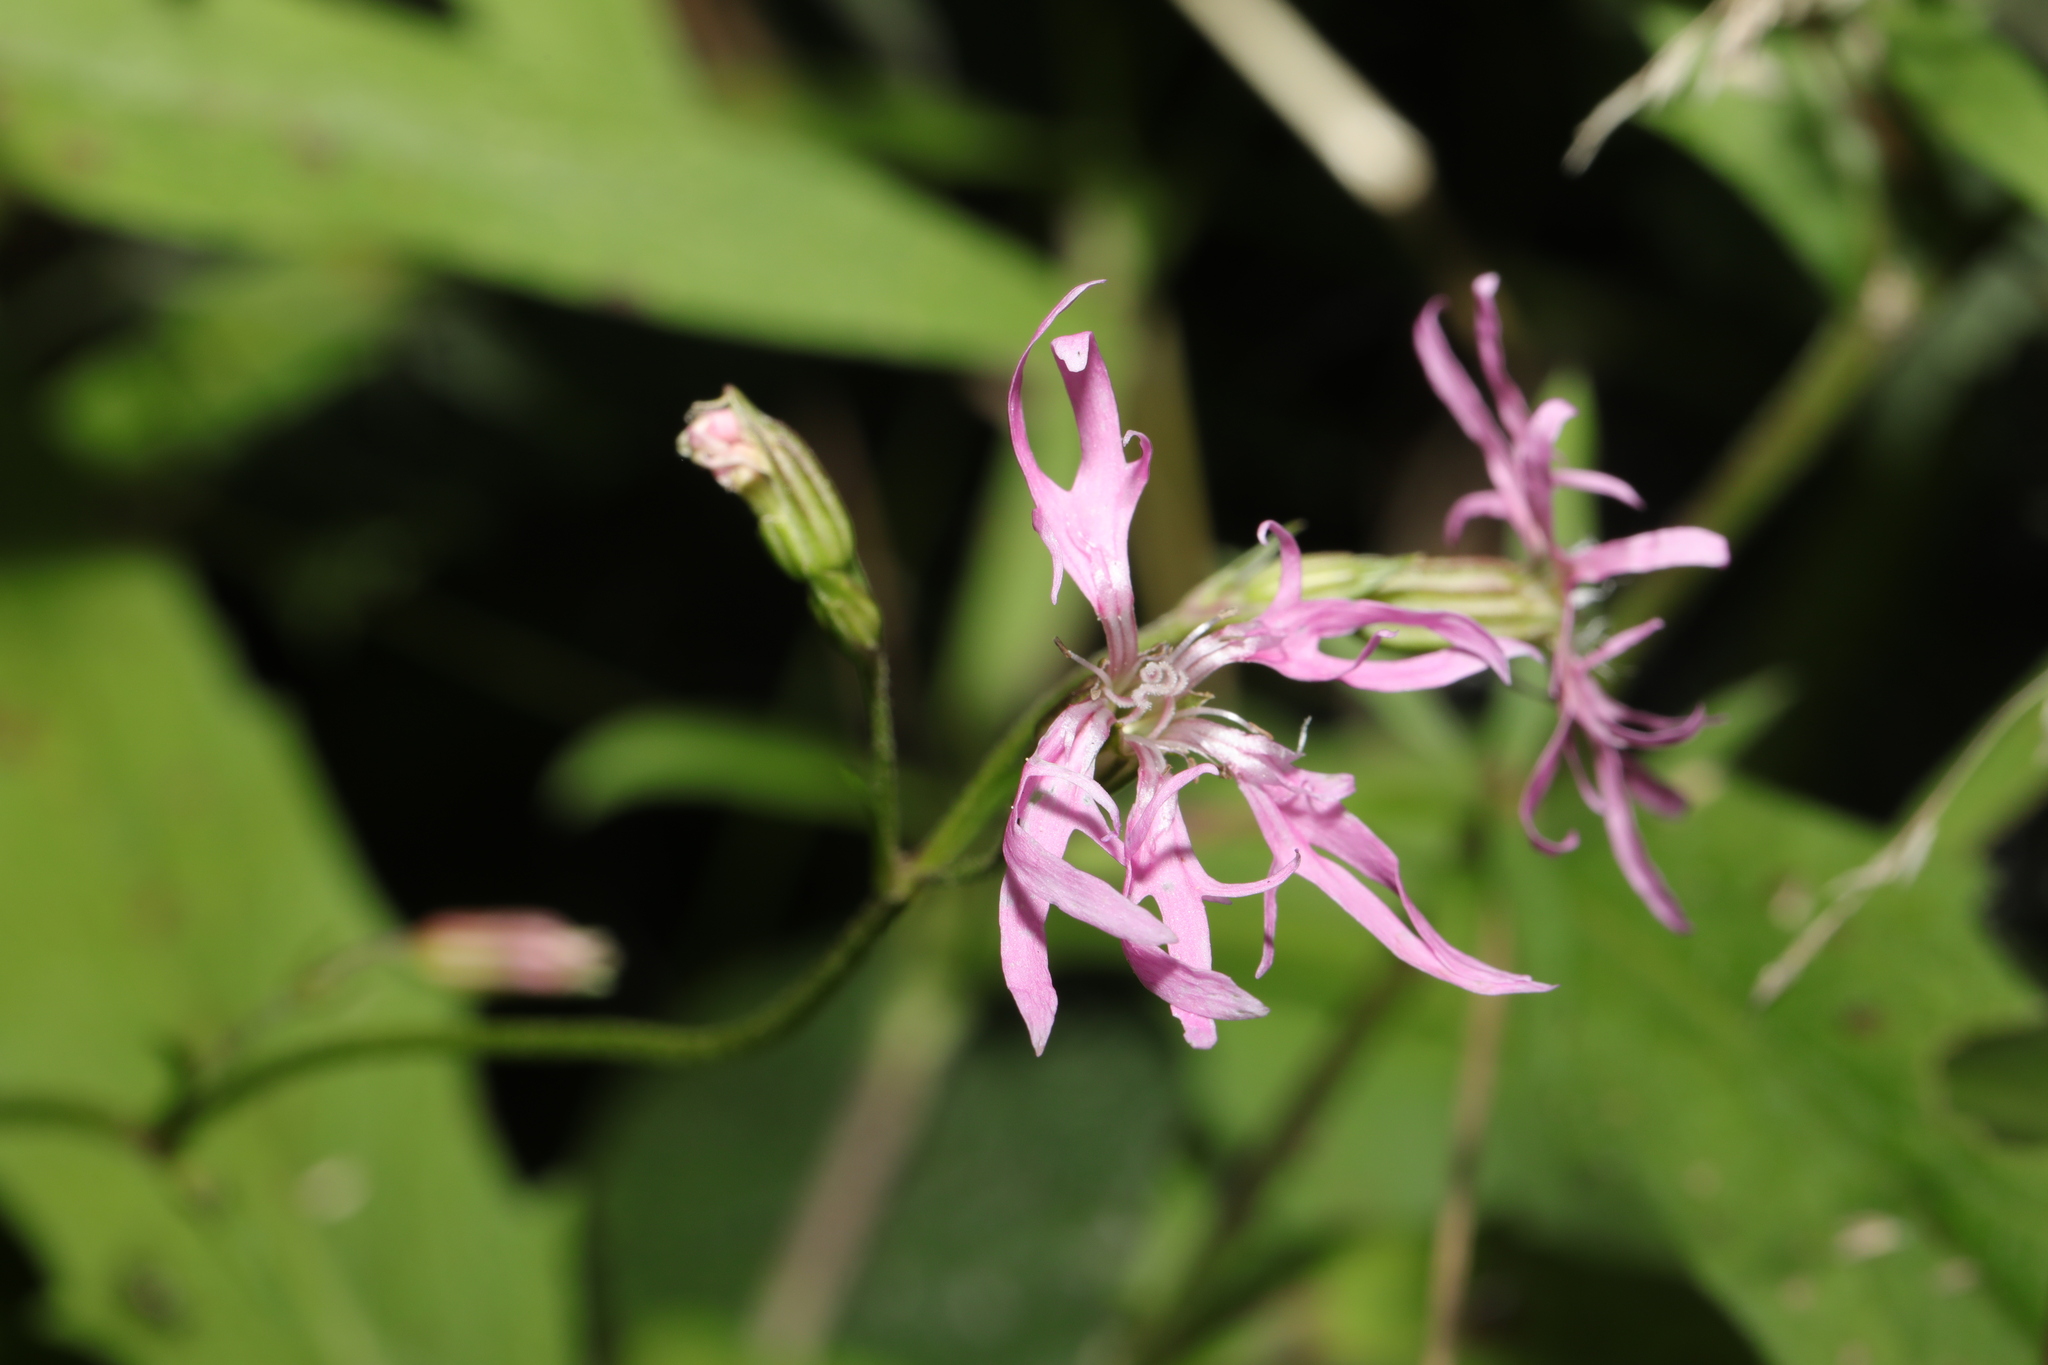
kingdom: Plantae
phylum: Tracheophyta
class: Magnoliopsida
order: Caryophyllales
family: Caryophyllaceae
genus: Silene
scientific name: Silene flos-cuculi
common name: Ragged-robin
